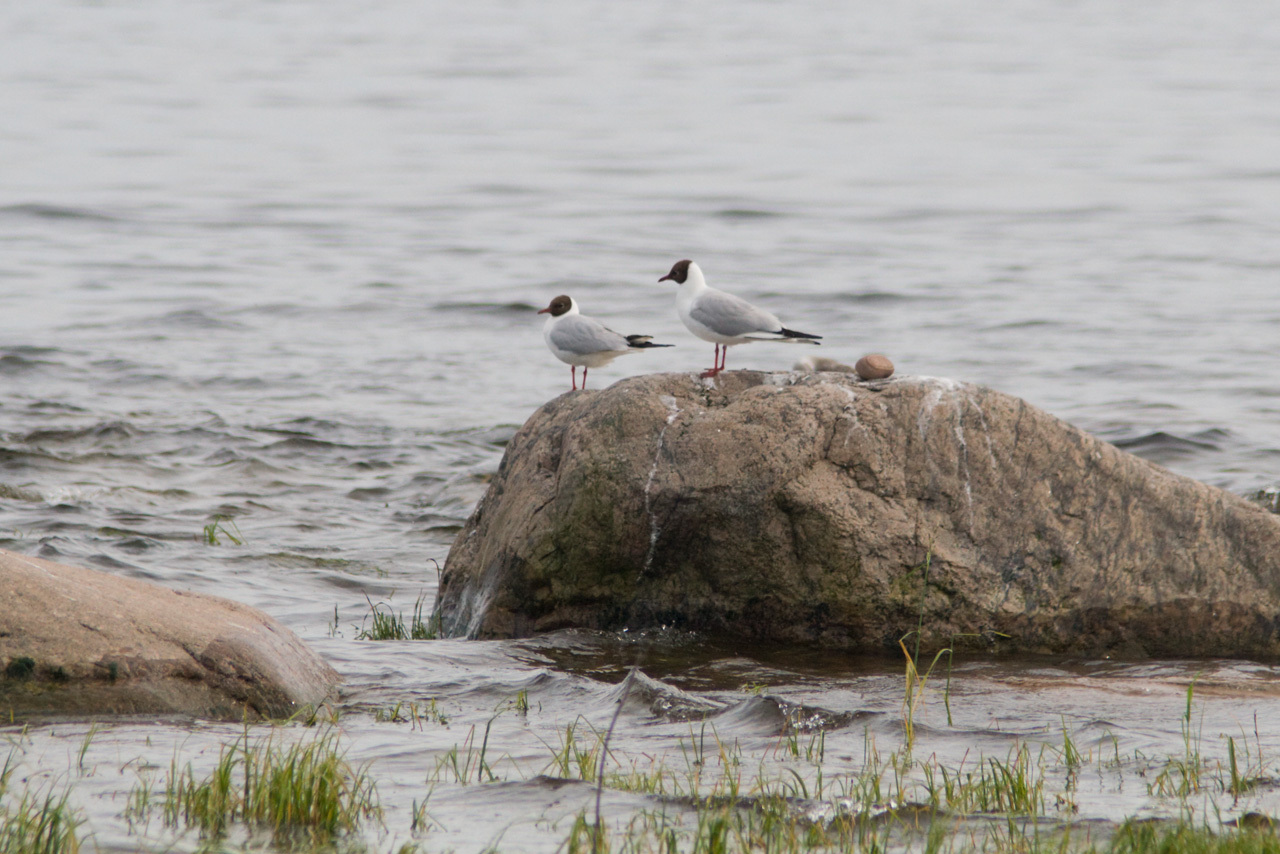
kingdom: Animalia
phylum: Chordata
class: Aves
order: Charadriiformes
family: Laridae
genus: Chroicocephalus
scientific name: Chroicocephalus ridibundus
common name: Black-headed gull
